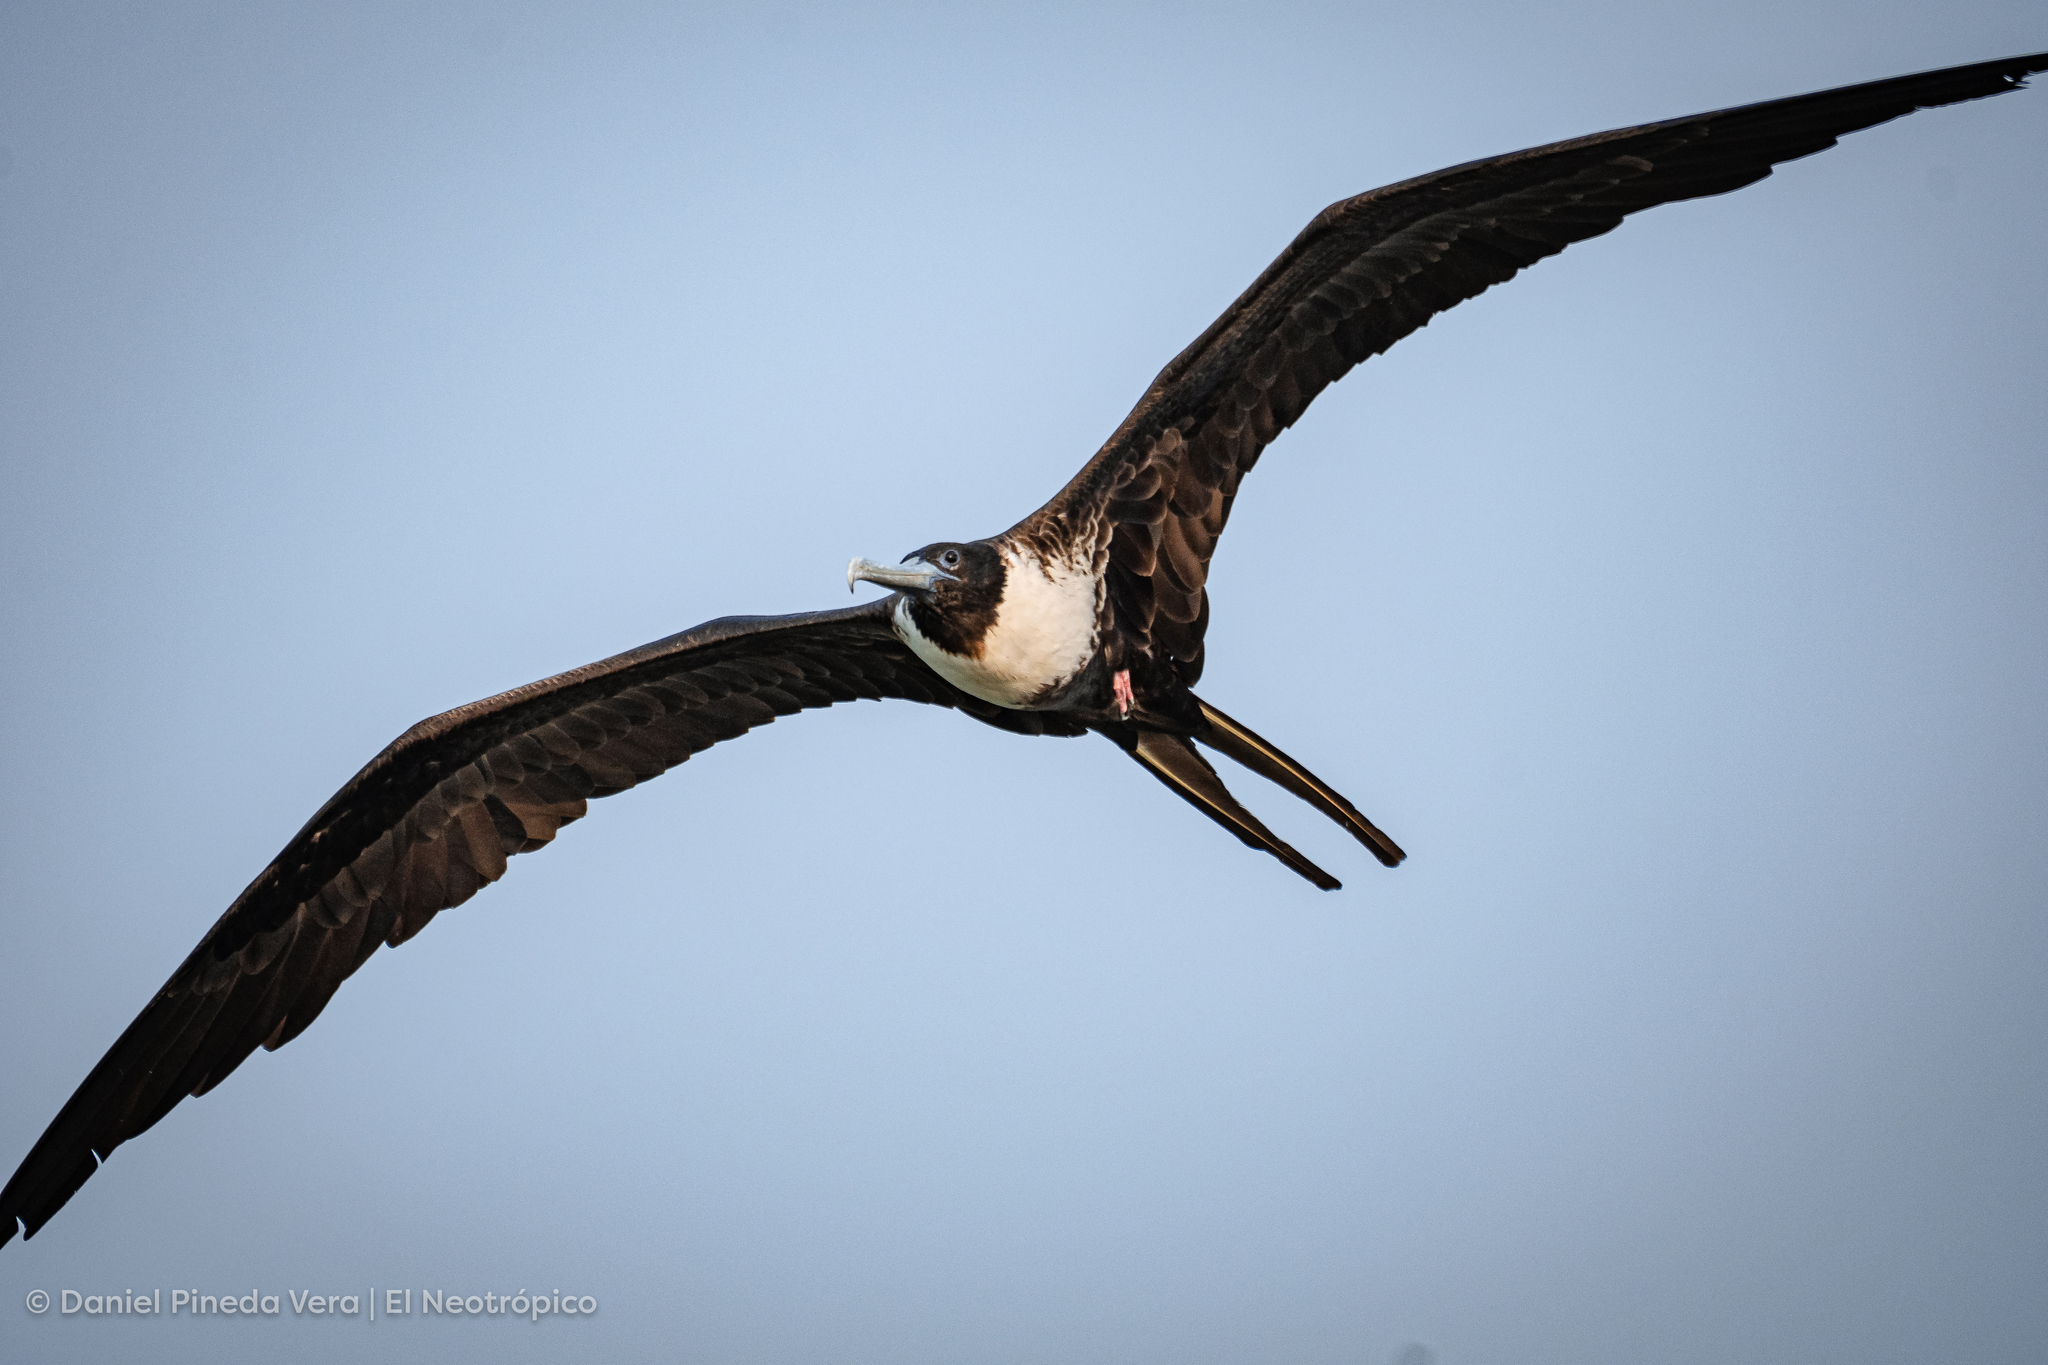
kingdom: Animalia
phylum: Chordata
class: Aves
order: Suliformes
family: Fregatidae
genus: Fregata
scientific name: Fregata magnificens
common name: Magnificent frigatebird
